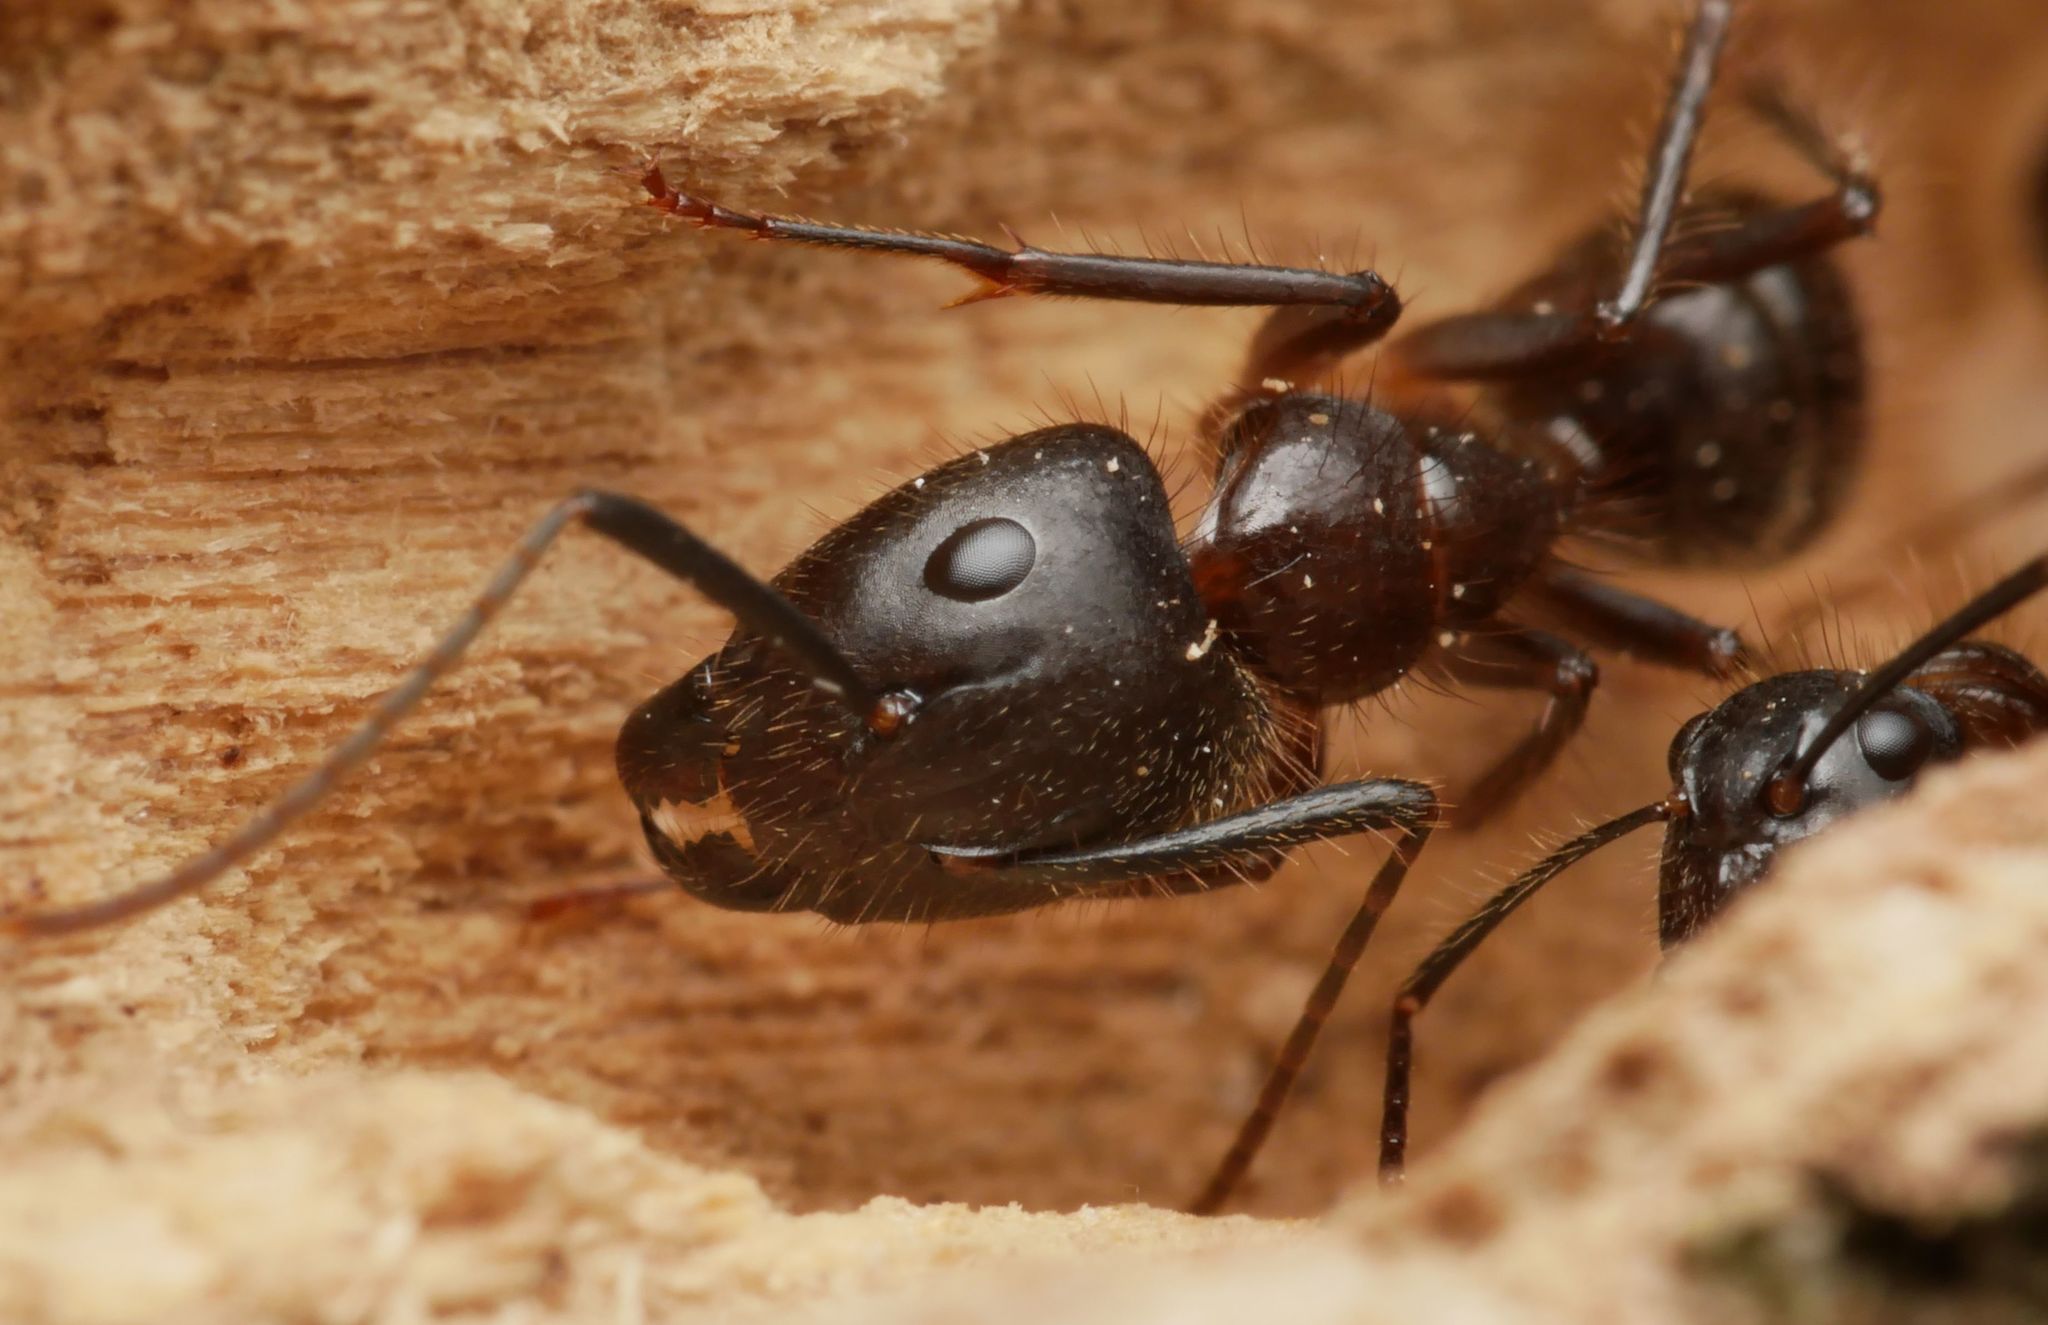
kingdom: Animalia
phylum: Arthropoda
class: Insecta
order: Hymenoptera
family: Formicidae
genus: Camponotus
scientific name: Camponotus atriceps
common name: Florida carpenter ant
